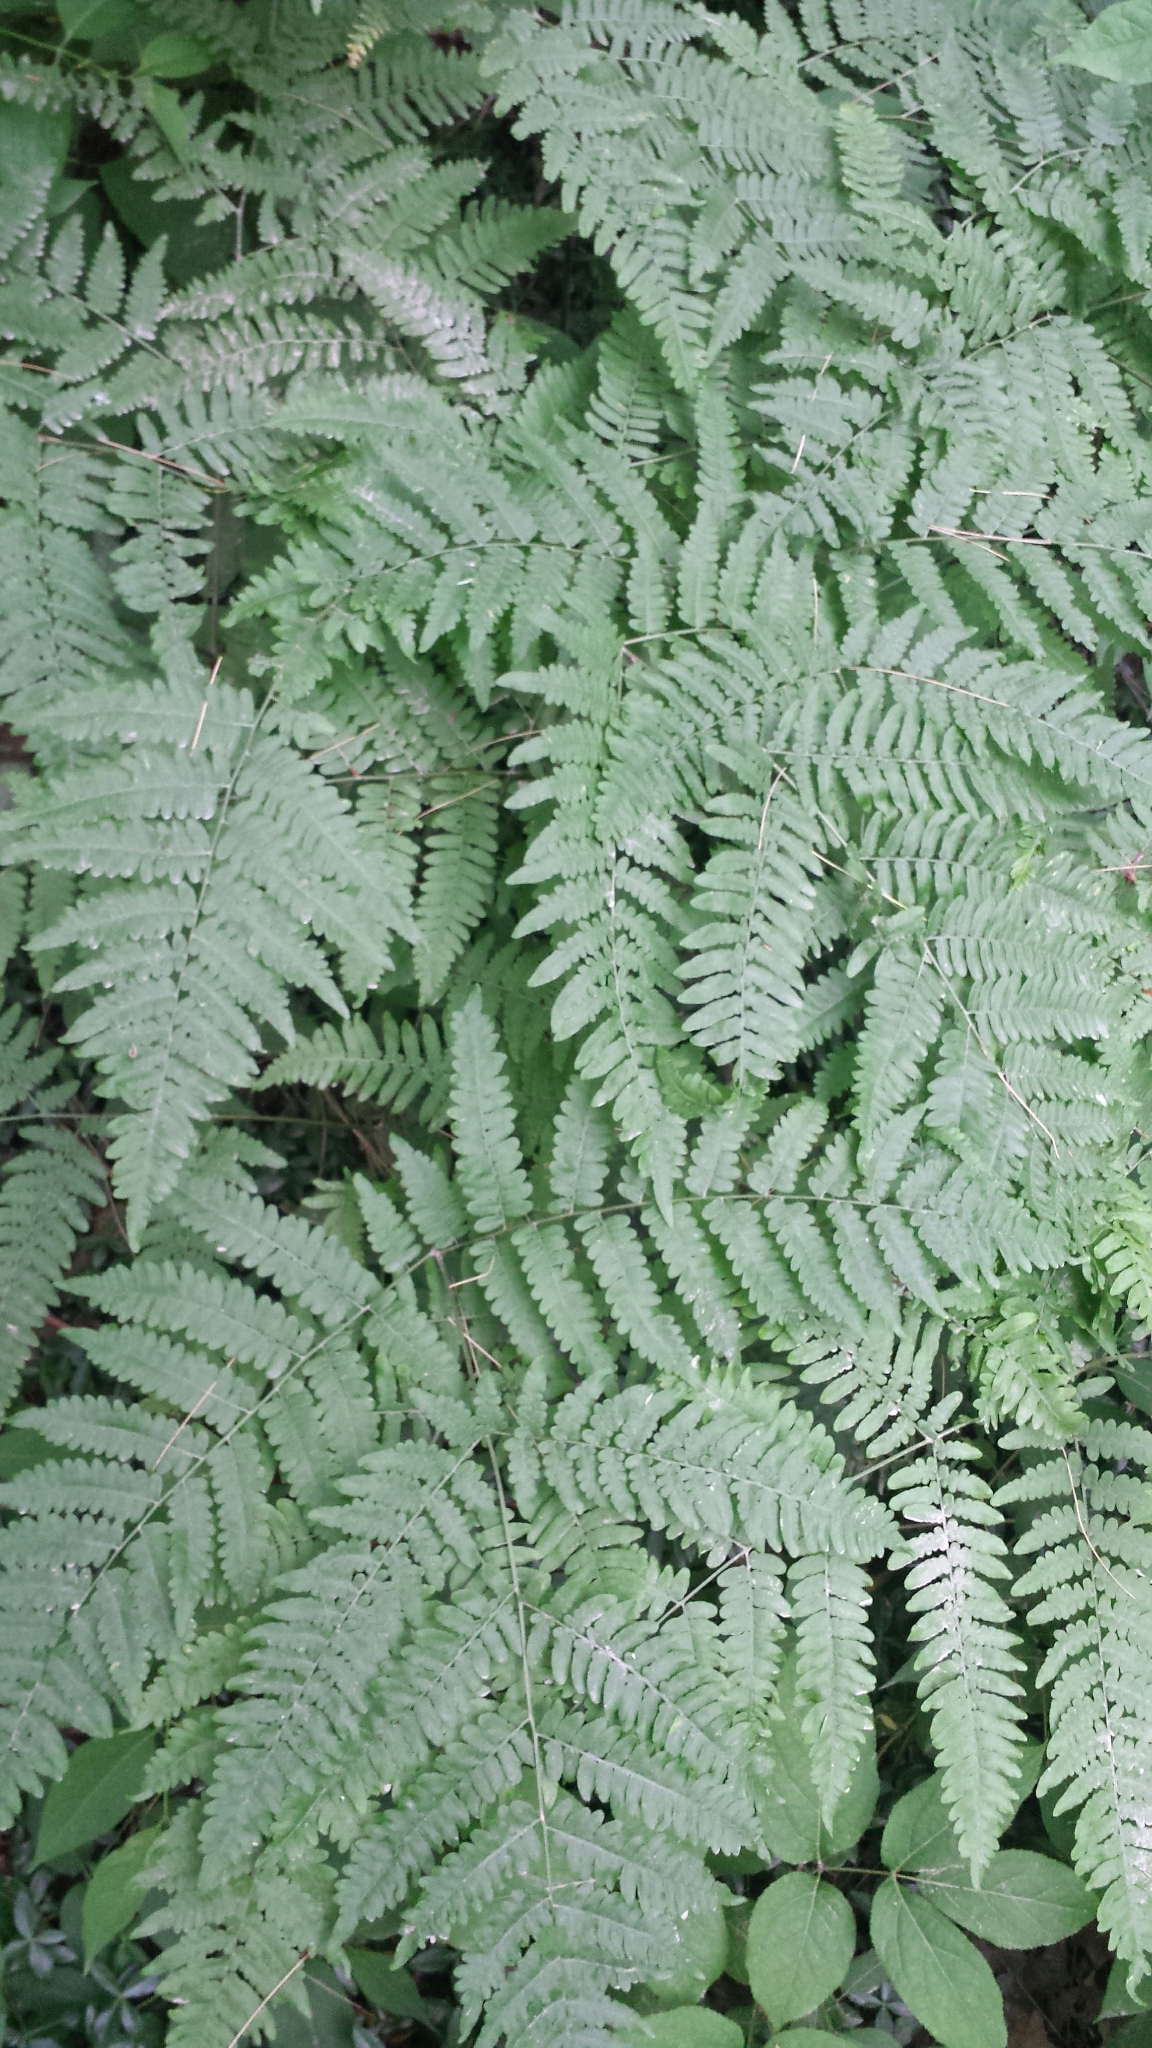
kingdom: Plantae
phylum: Tracheophyta
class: Polypodiopsida
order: Polypodiales
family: Dennstaedtiaceae
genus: Pteridium
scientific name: Pteridium aquilinum
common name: Bracken
